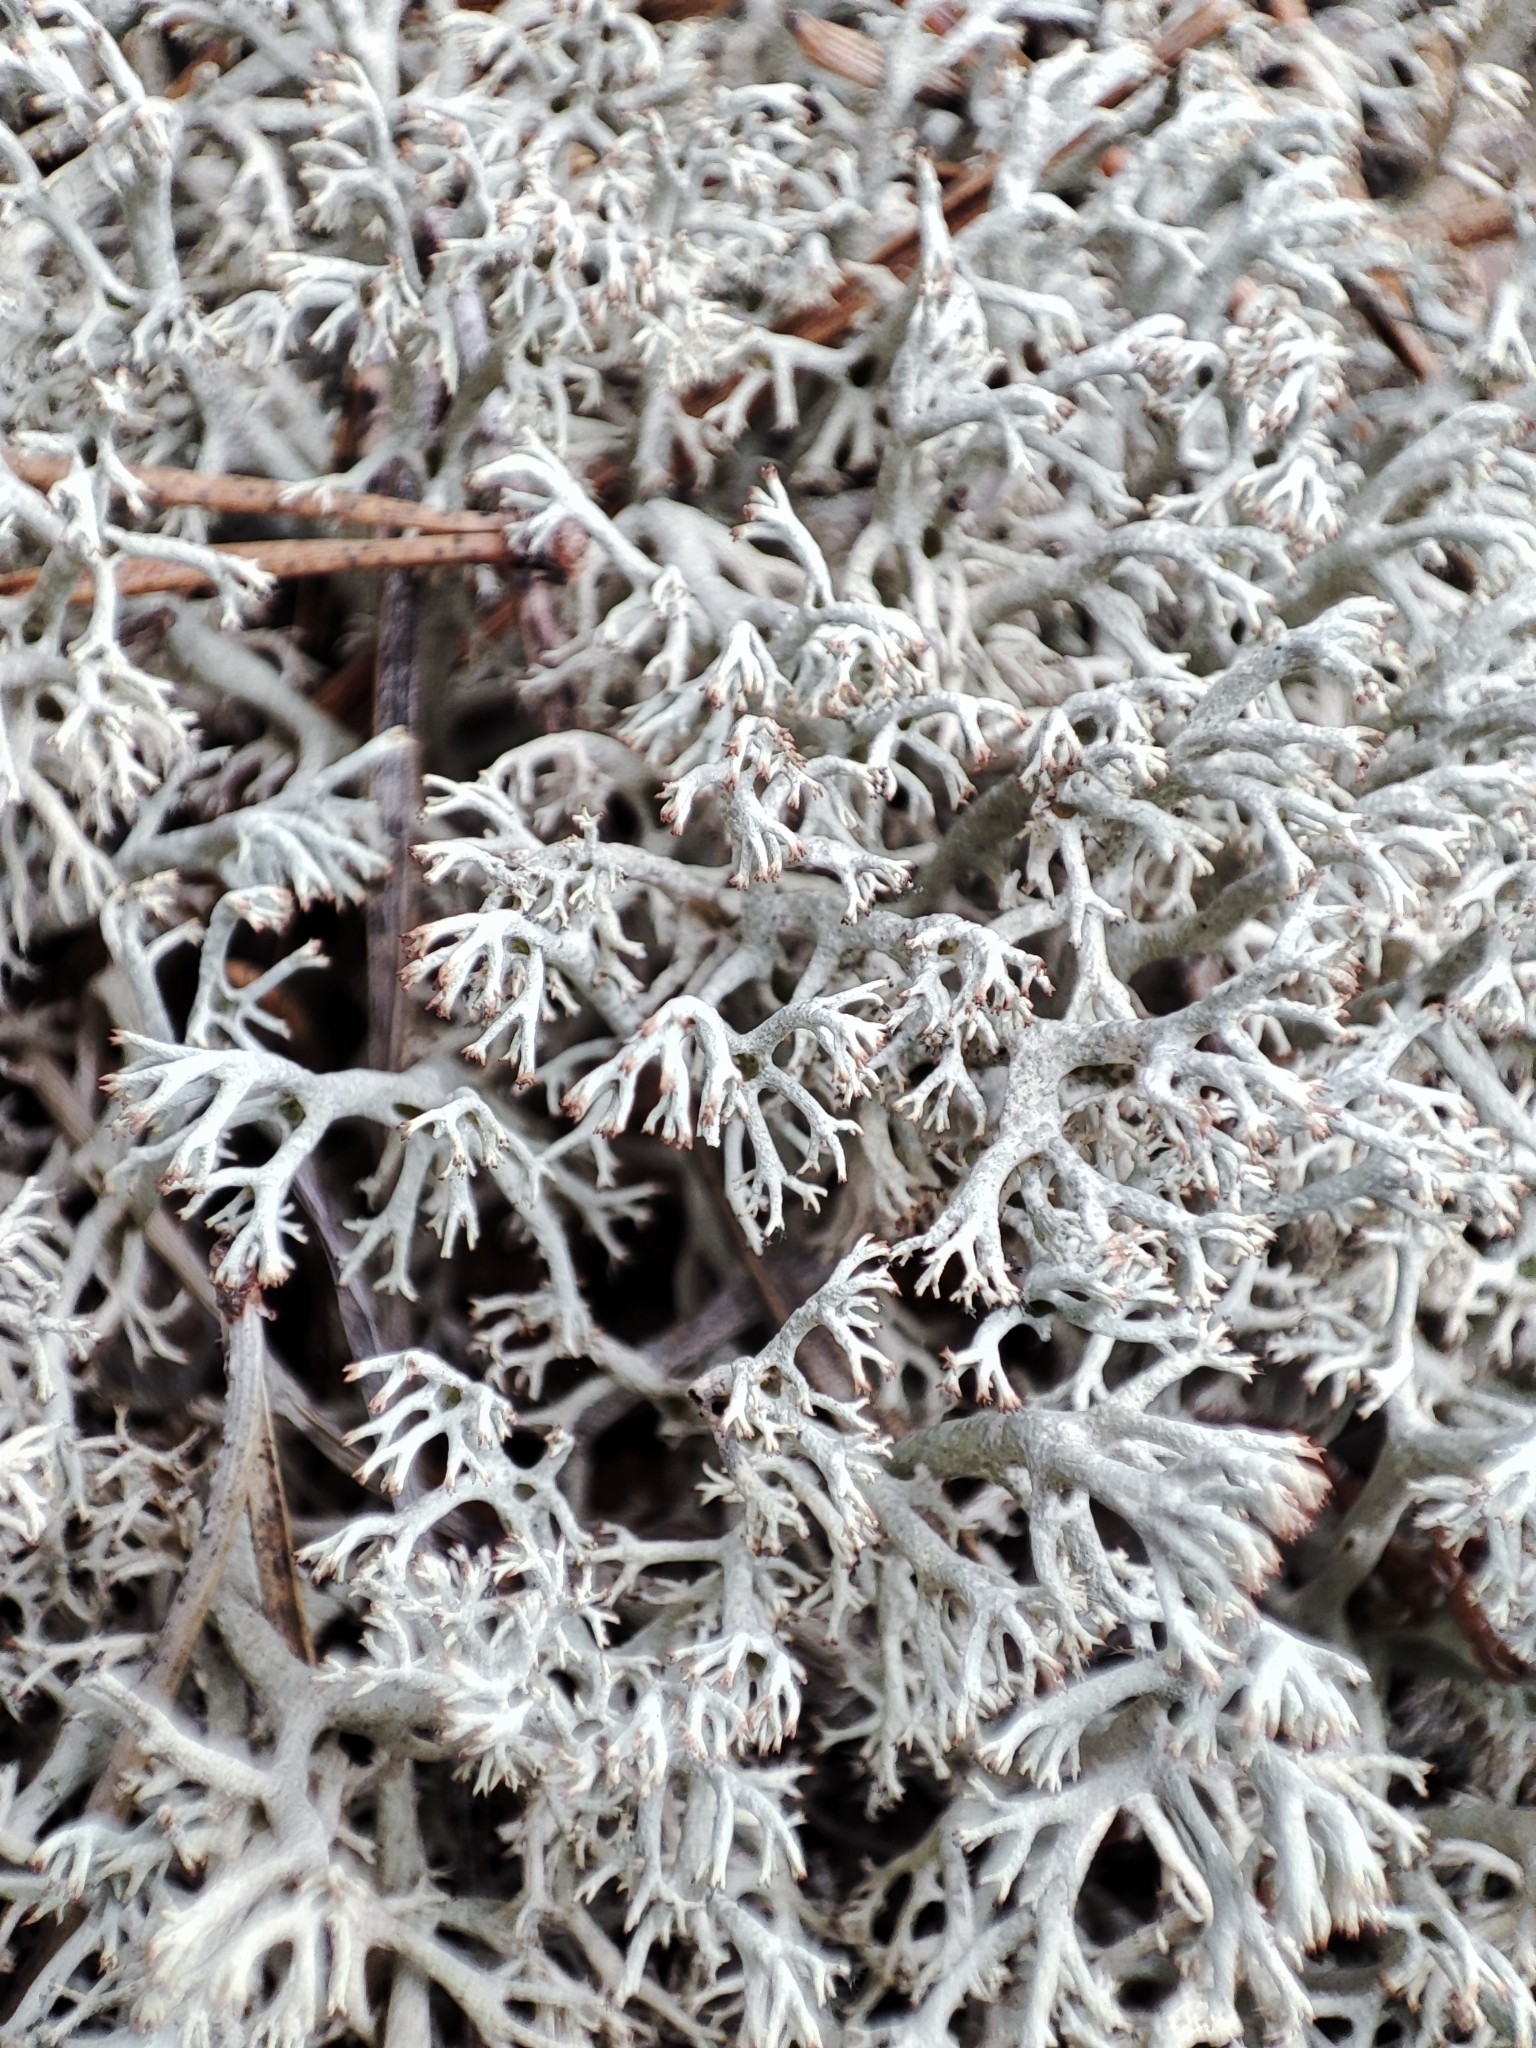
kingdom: Fungi
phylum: Ascomycota
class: Lecanoromycetes
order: Lecanorales
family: Cladoniaceae
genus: Cladonia
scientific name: Cladonia rangiferina
